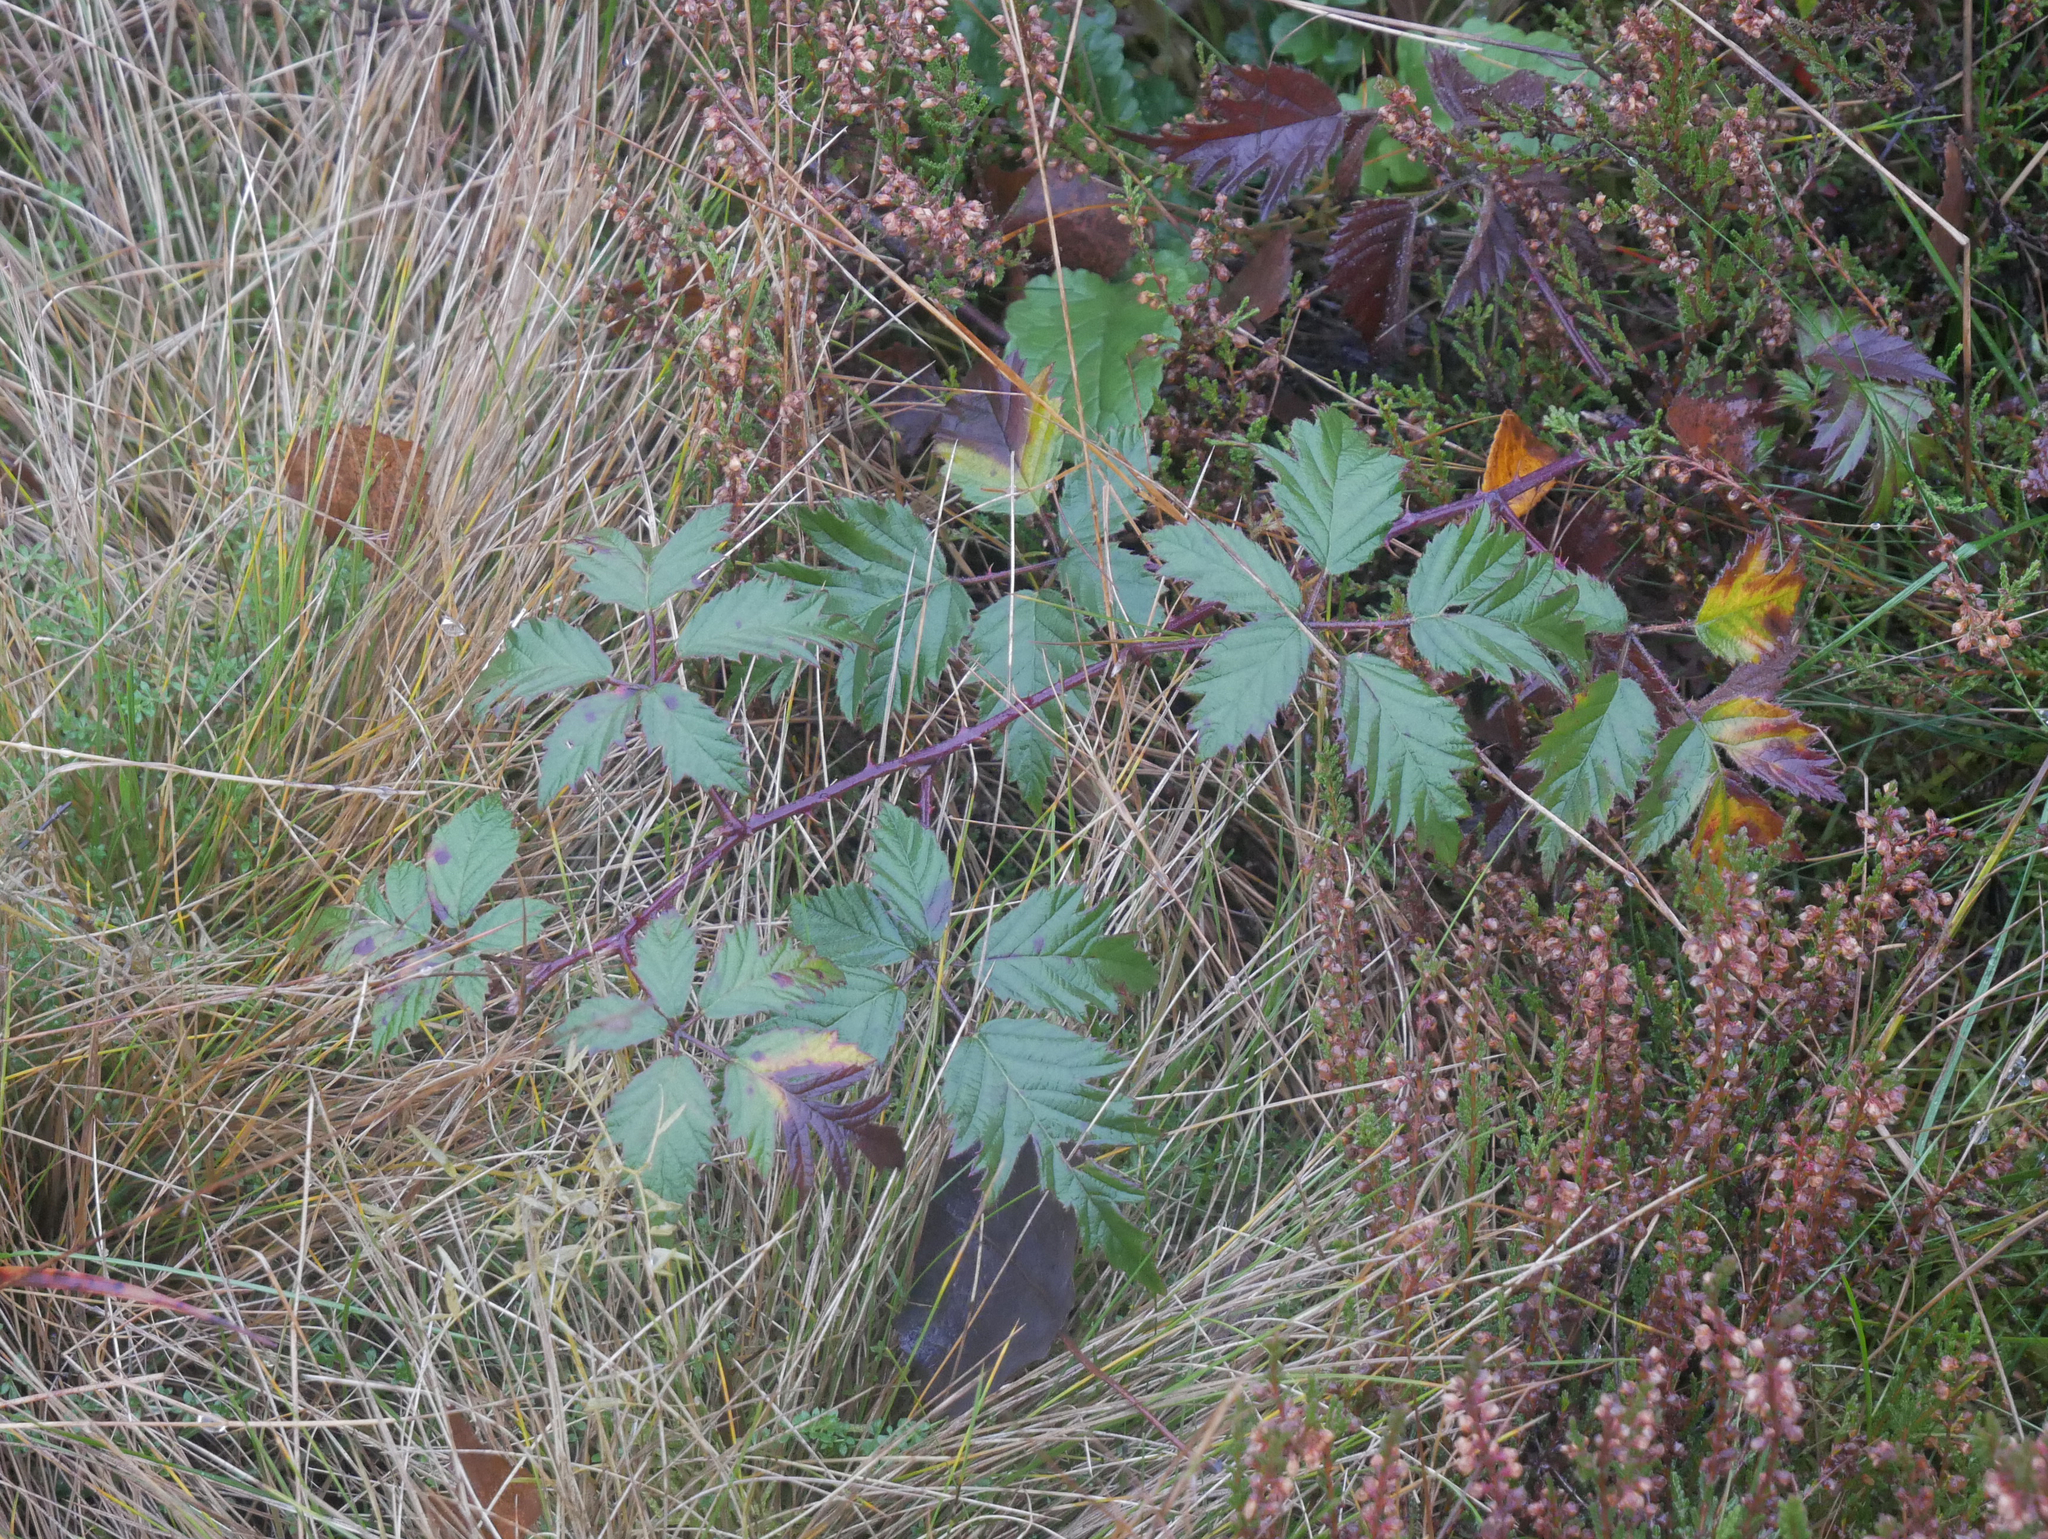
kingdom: Plantae
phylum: Tracheophyta
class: Magnoliopsida
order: Rosales
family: Rosaceae
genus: Rubus
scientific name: Rubus laciniatus
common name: Evergreen blackberry
